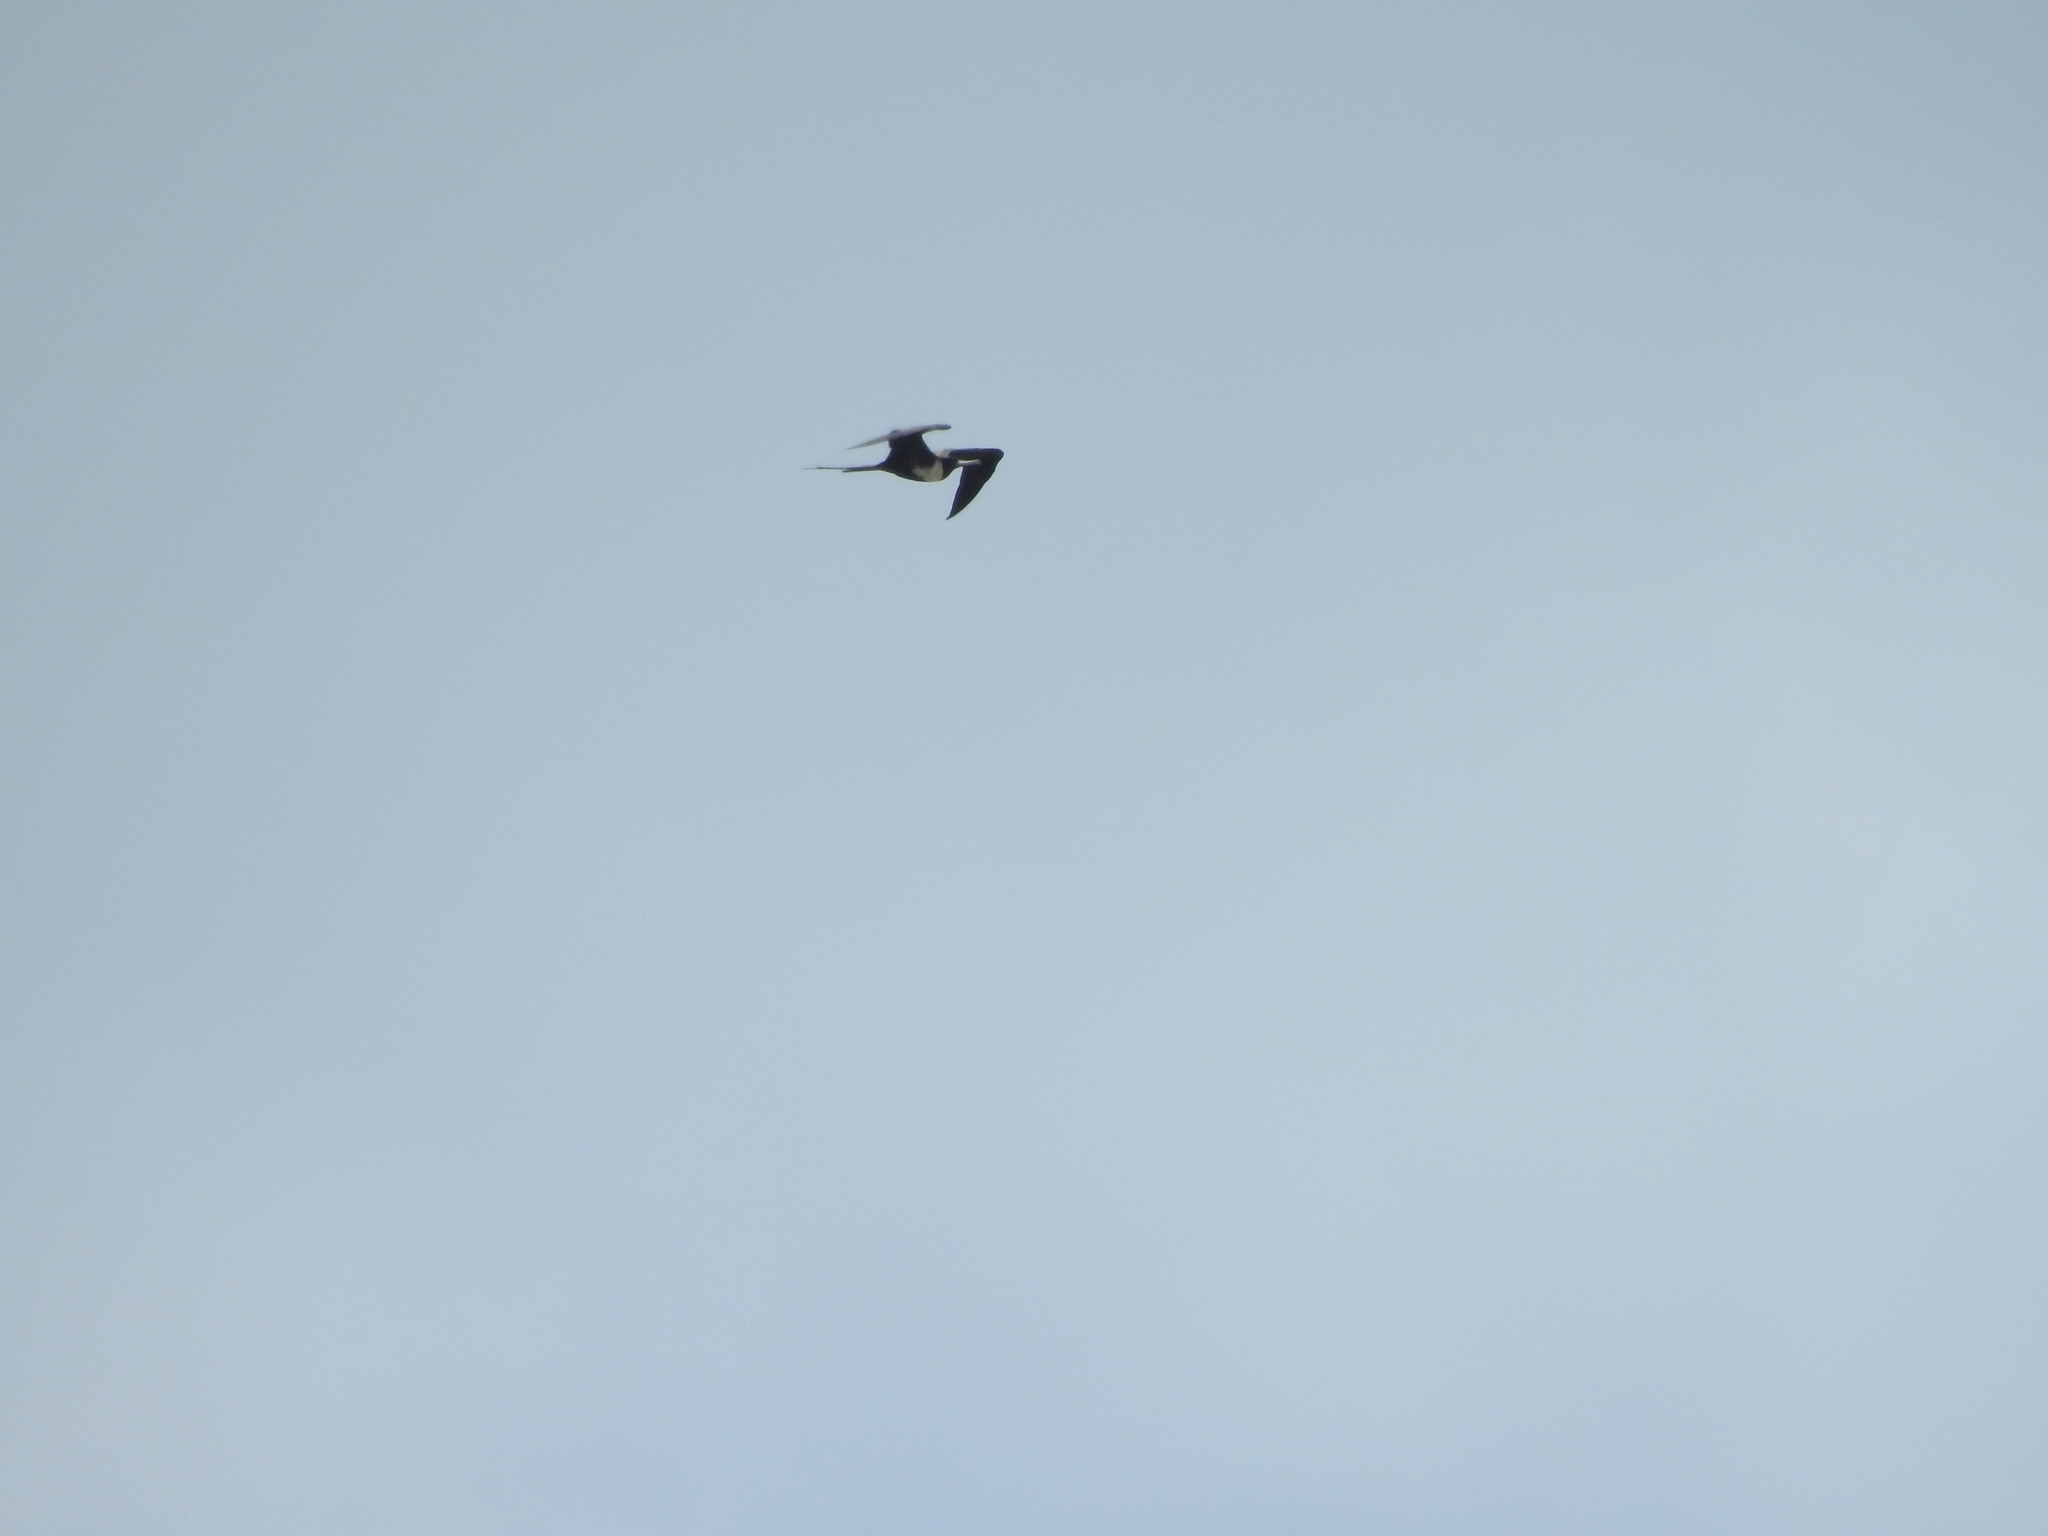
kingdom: Animalia
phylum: Chordata
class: Aves
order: Suliformes
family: Fregatidae
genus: Fregata
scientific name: Fregata magnificens
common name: Magnificent frigatebird
